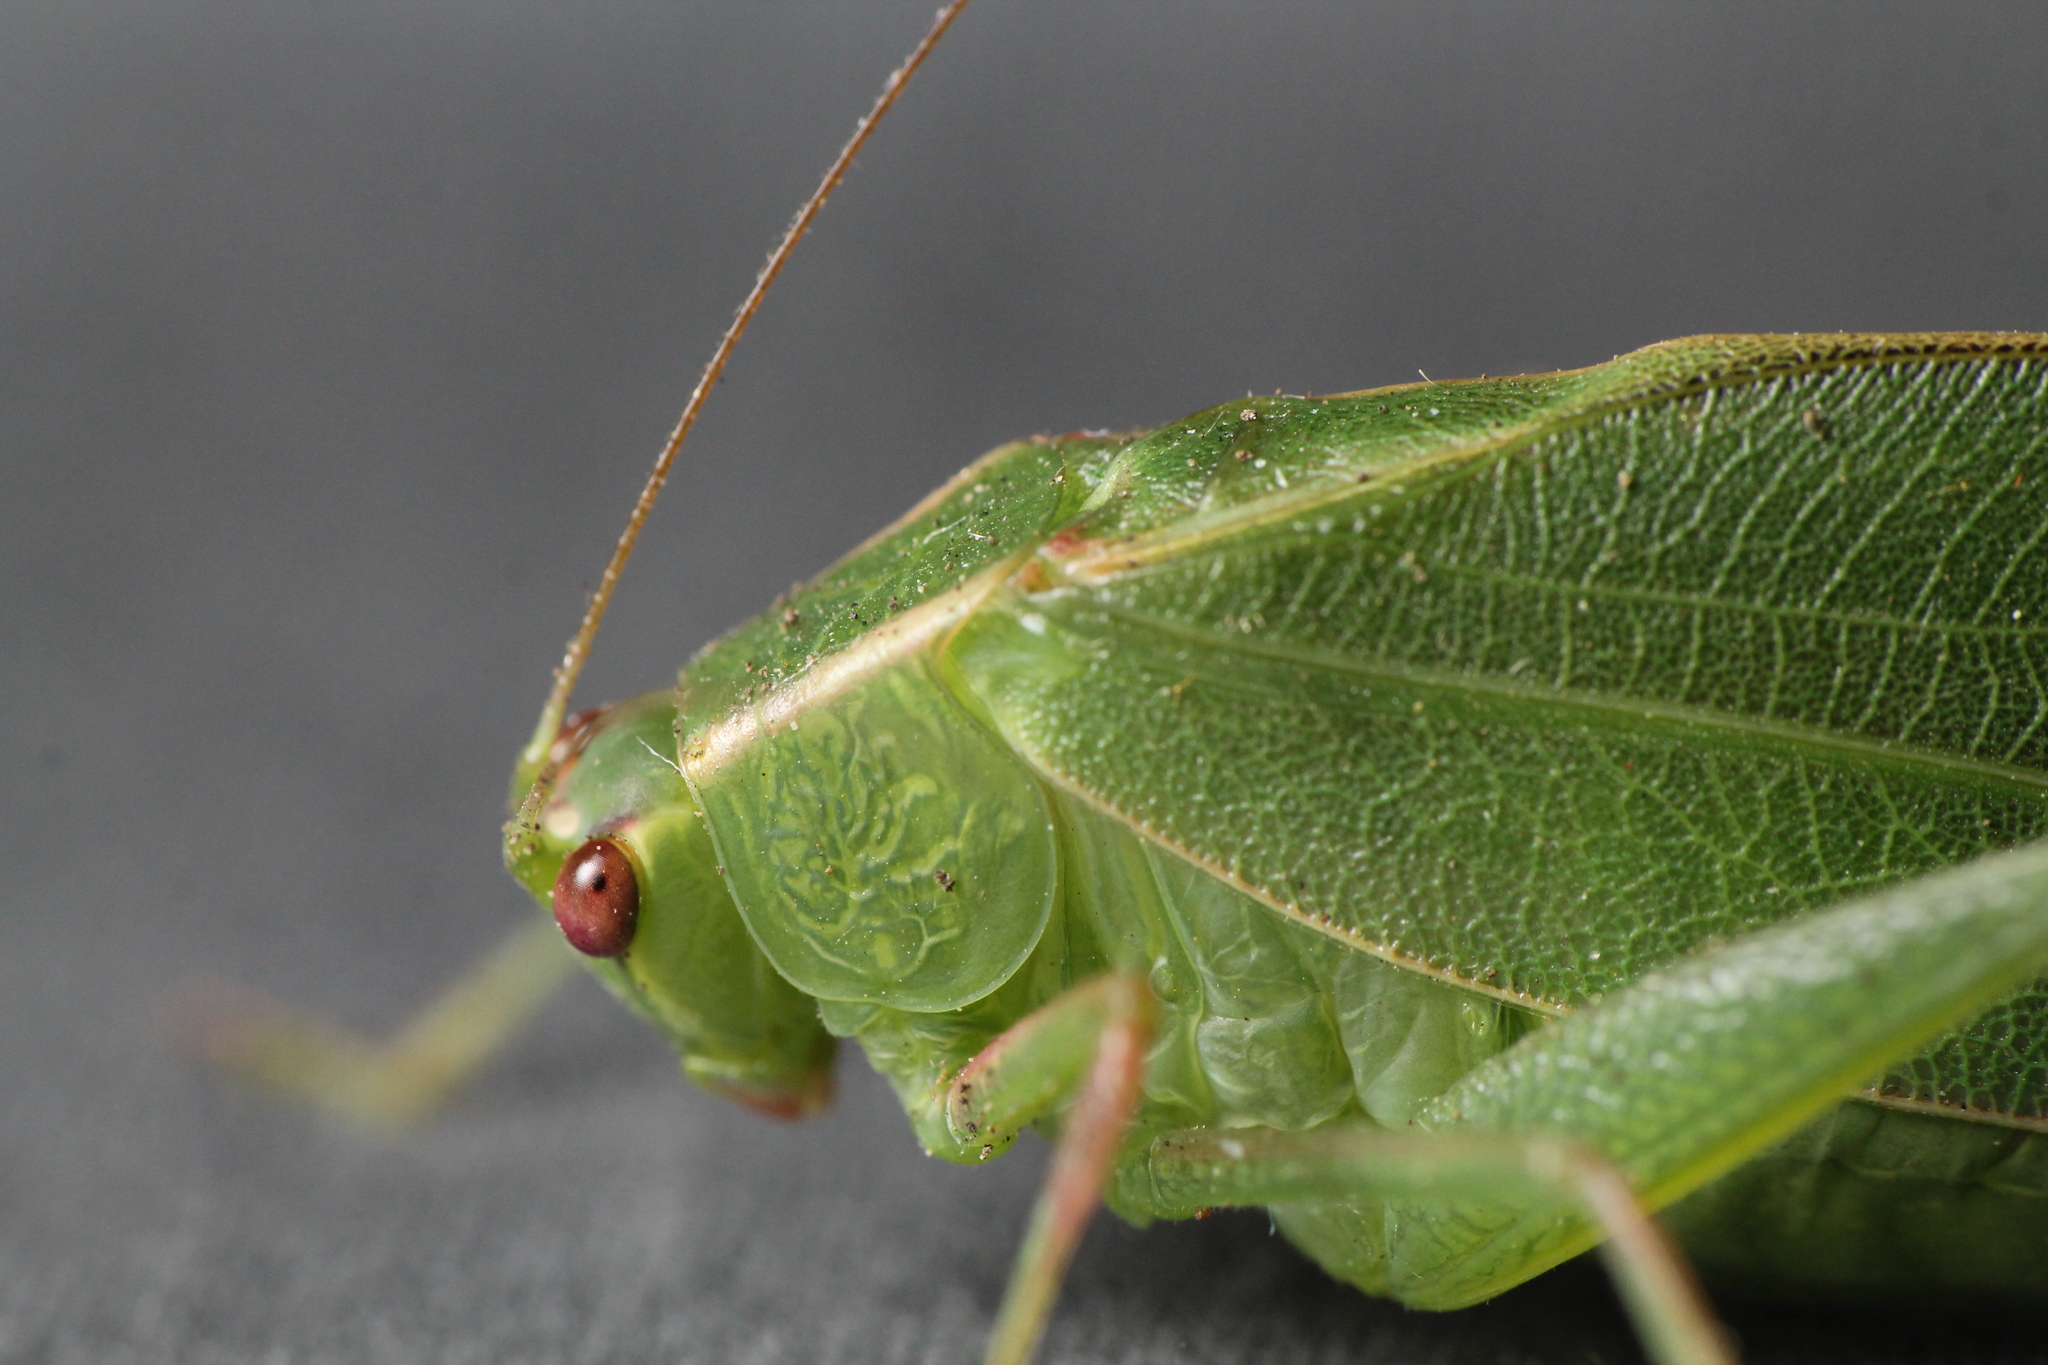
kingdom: Animalia
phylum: Arthropoda
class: Insecta
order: Orthoptera
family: Tettigoniidae
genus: Caedicia
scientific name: Caedicia simplex
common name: Common garden katydid
